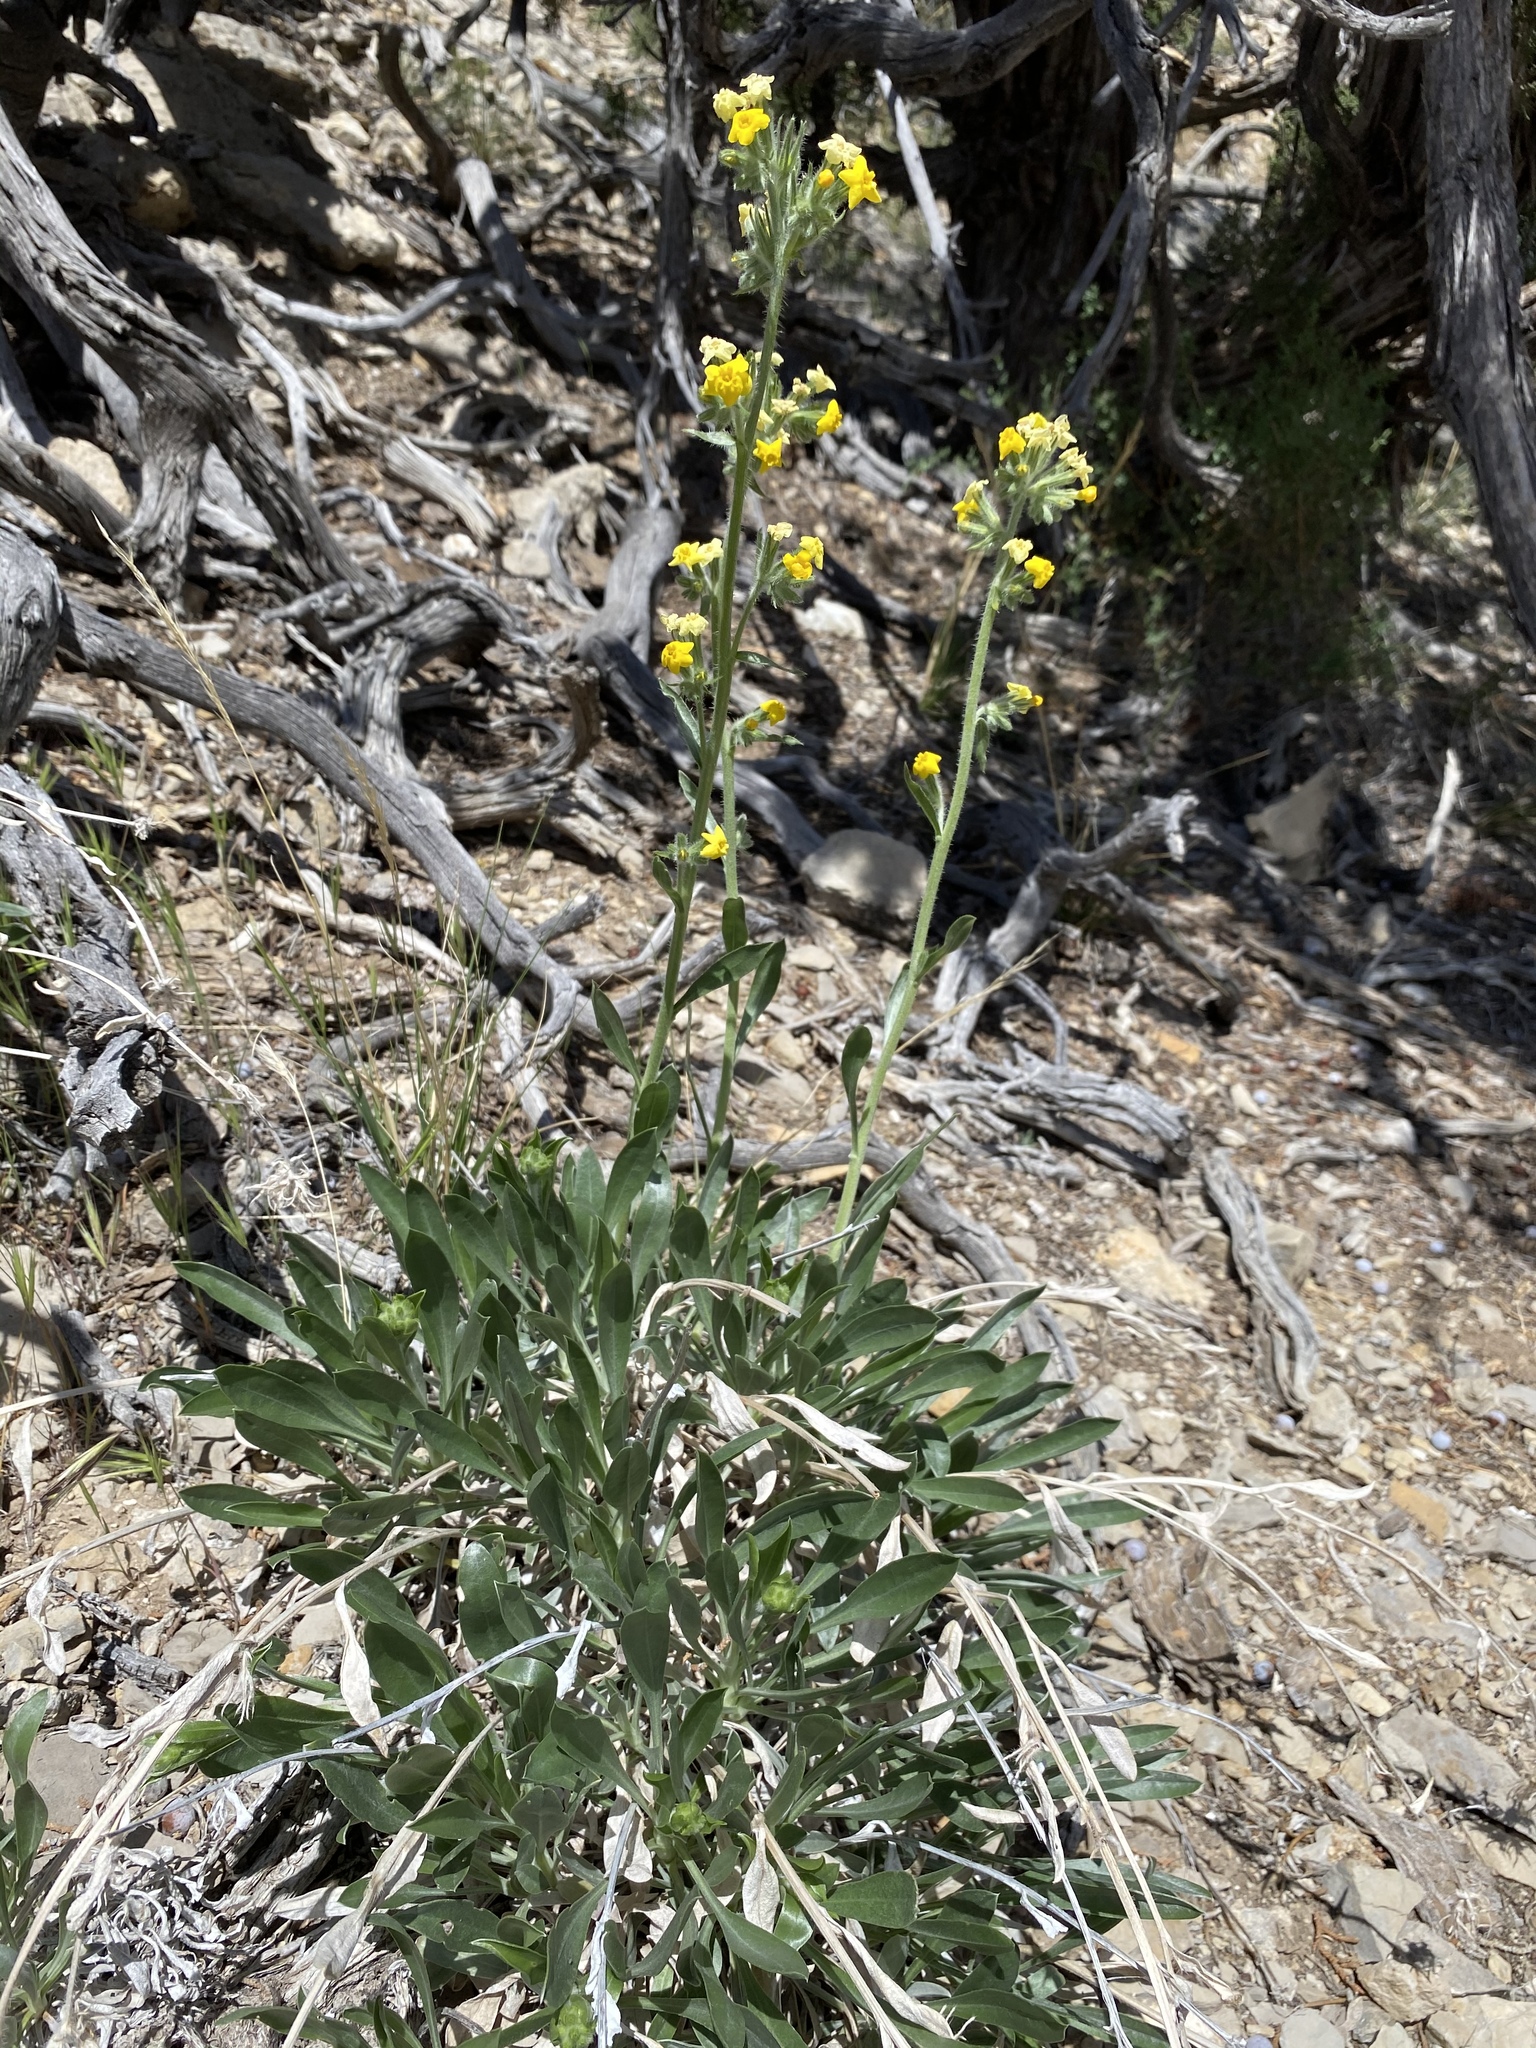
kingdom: Plantae
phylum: Tracheophyta
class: Magnoliopsida
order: Boraginales
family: Boraginaceae
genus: Oreocarya
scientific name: Oreocarya confertiflora
